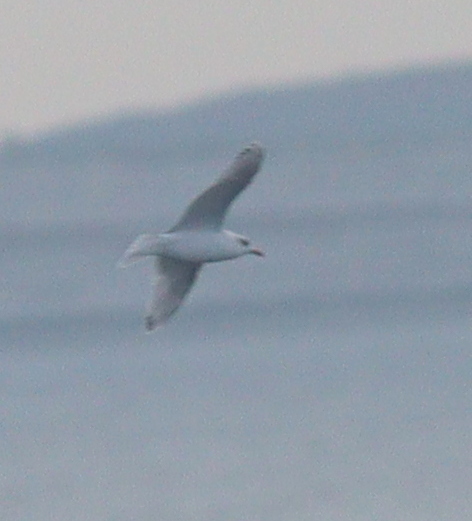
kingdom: Animalia
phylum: Chordata
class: Aves
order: Charadriiformes
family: Laridae
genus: Ichthyaetus
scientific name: Ichthyaetus melanocephalus
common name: Mediterranean gull
